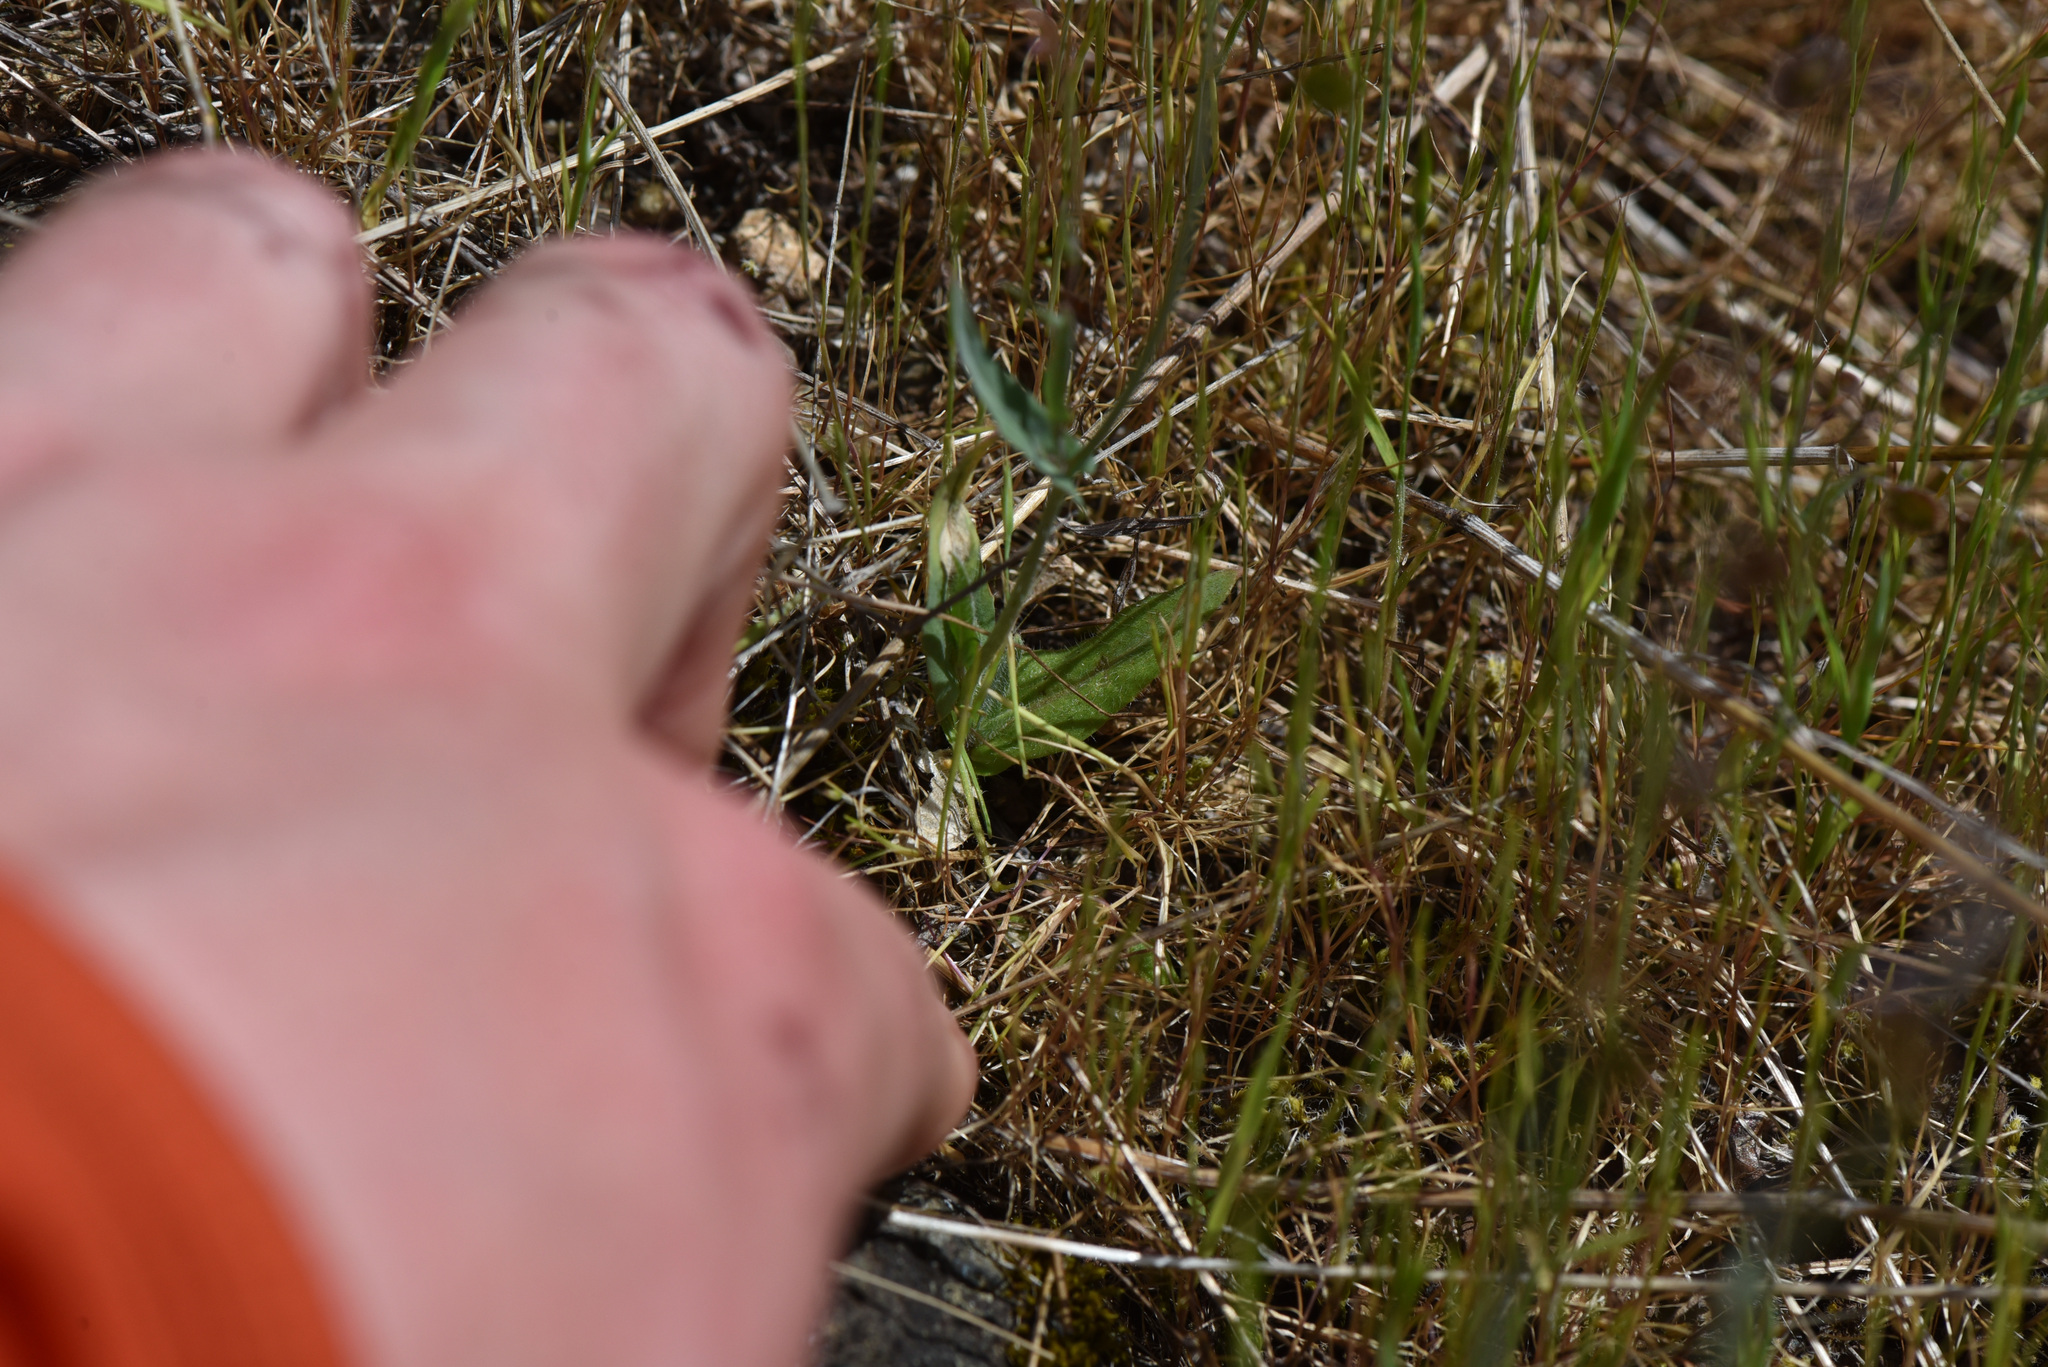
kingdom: Plantae
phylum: Tracheophyta
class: Magnoliopsida
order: Brassicales
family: Brassicaceae
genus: Thysanocarpus
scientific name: Thysanocarpus curvipes
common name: Sand fringepod
